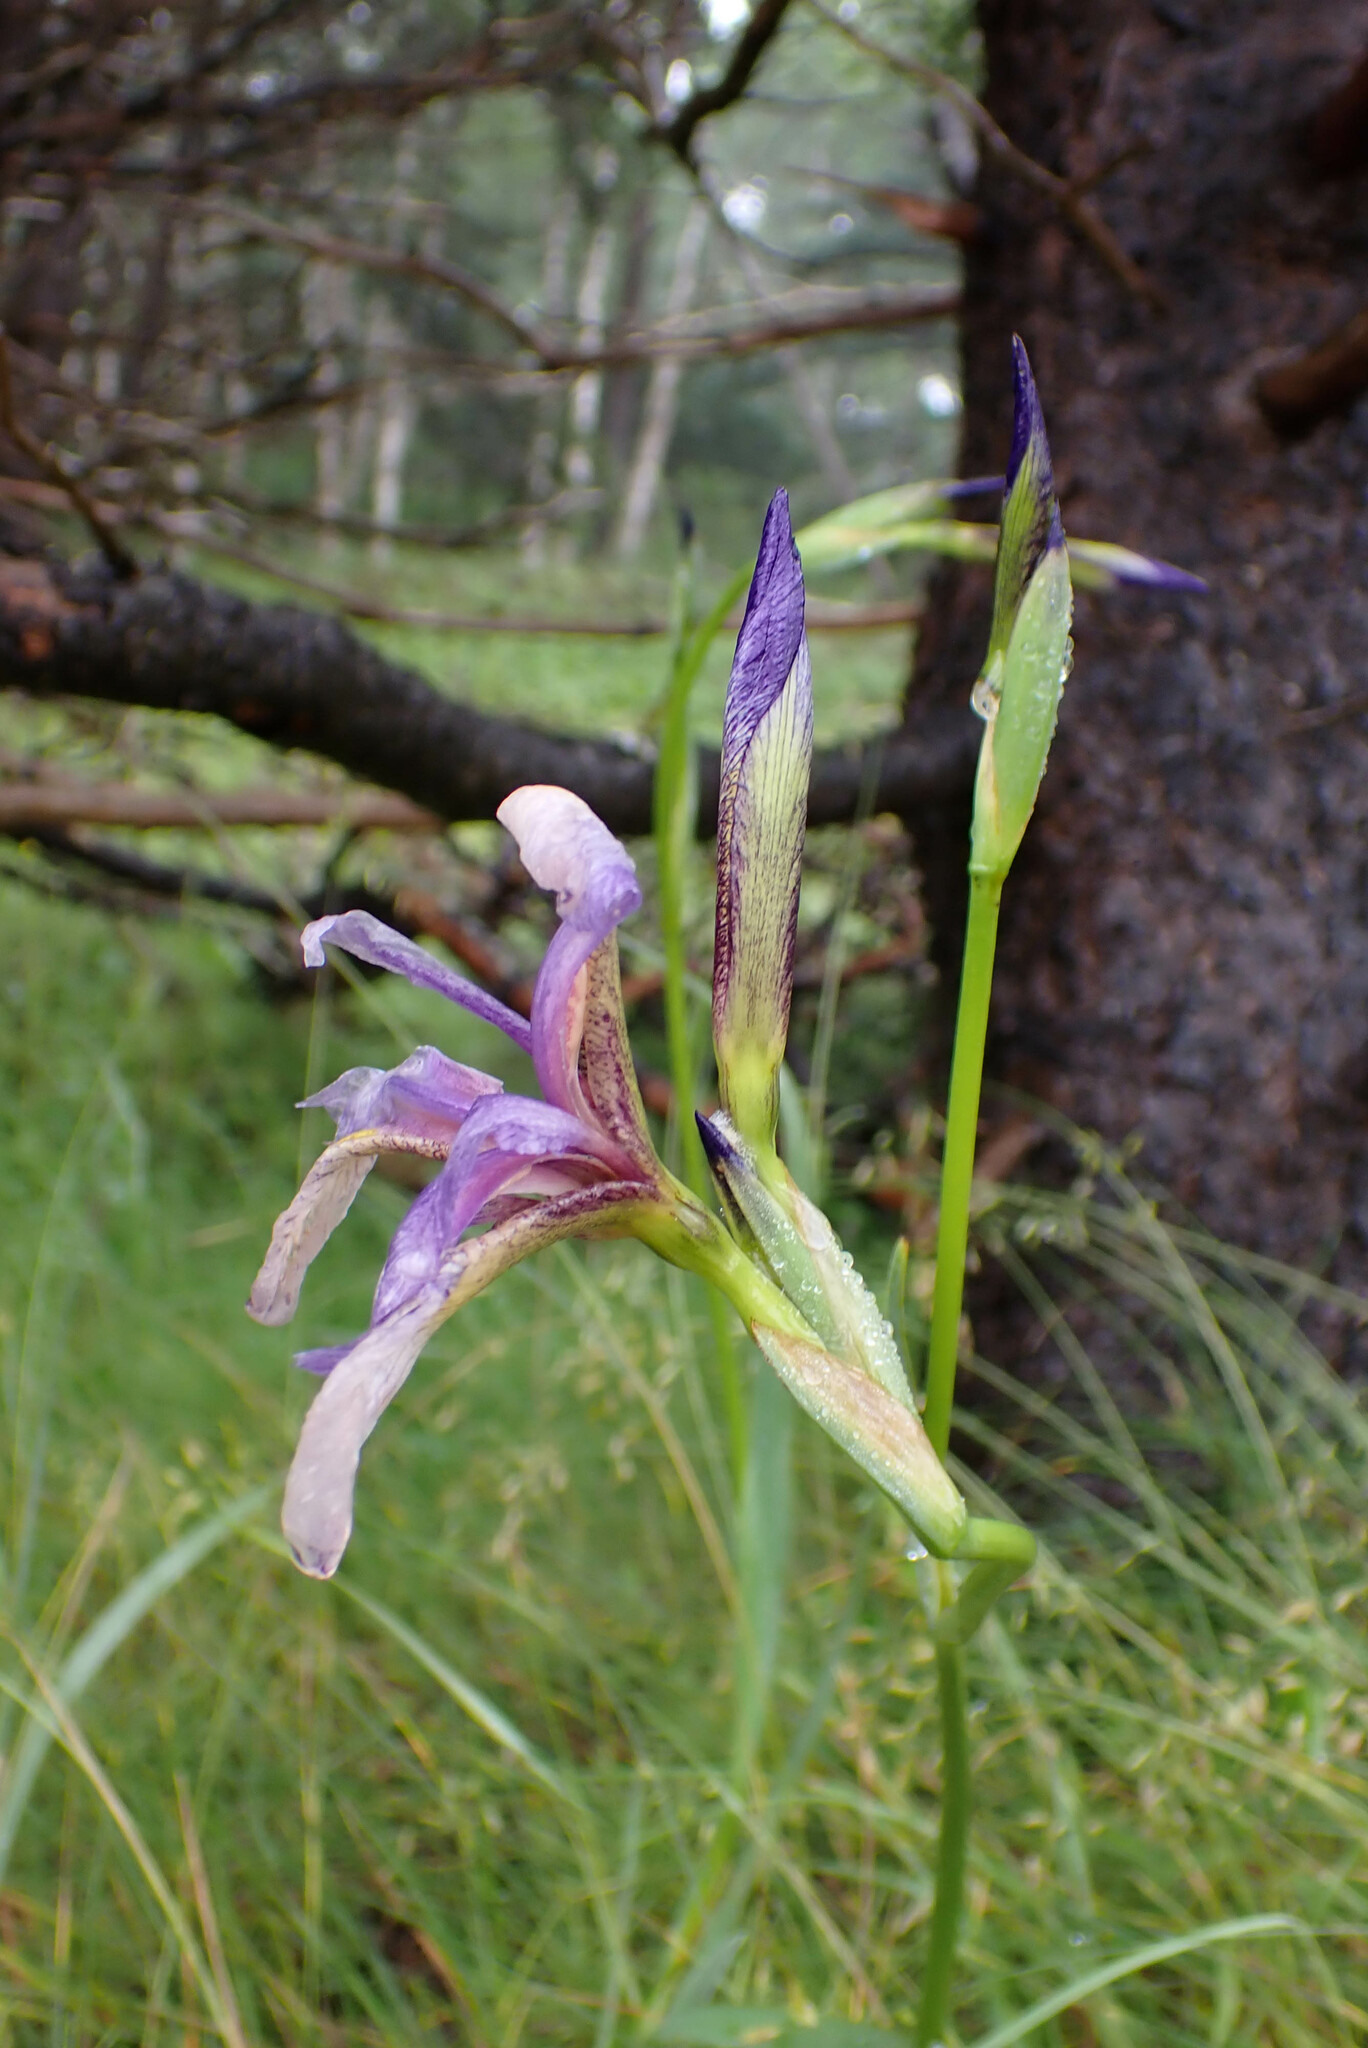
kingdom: Plantae
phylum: Tracheophyta
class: Liliopsida
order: Asparagales
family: Iridaceae
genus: Iris
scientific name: Iris versicolor
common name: Purple iris
